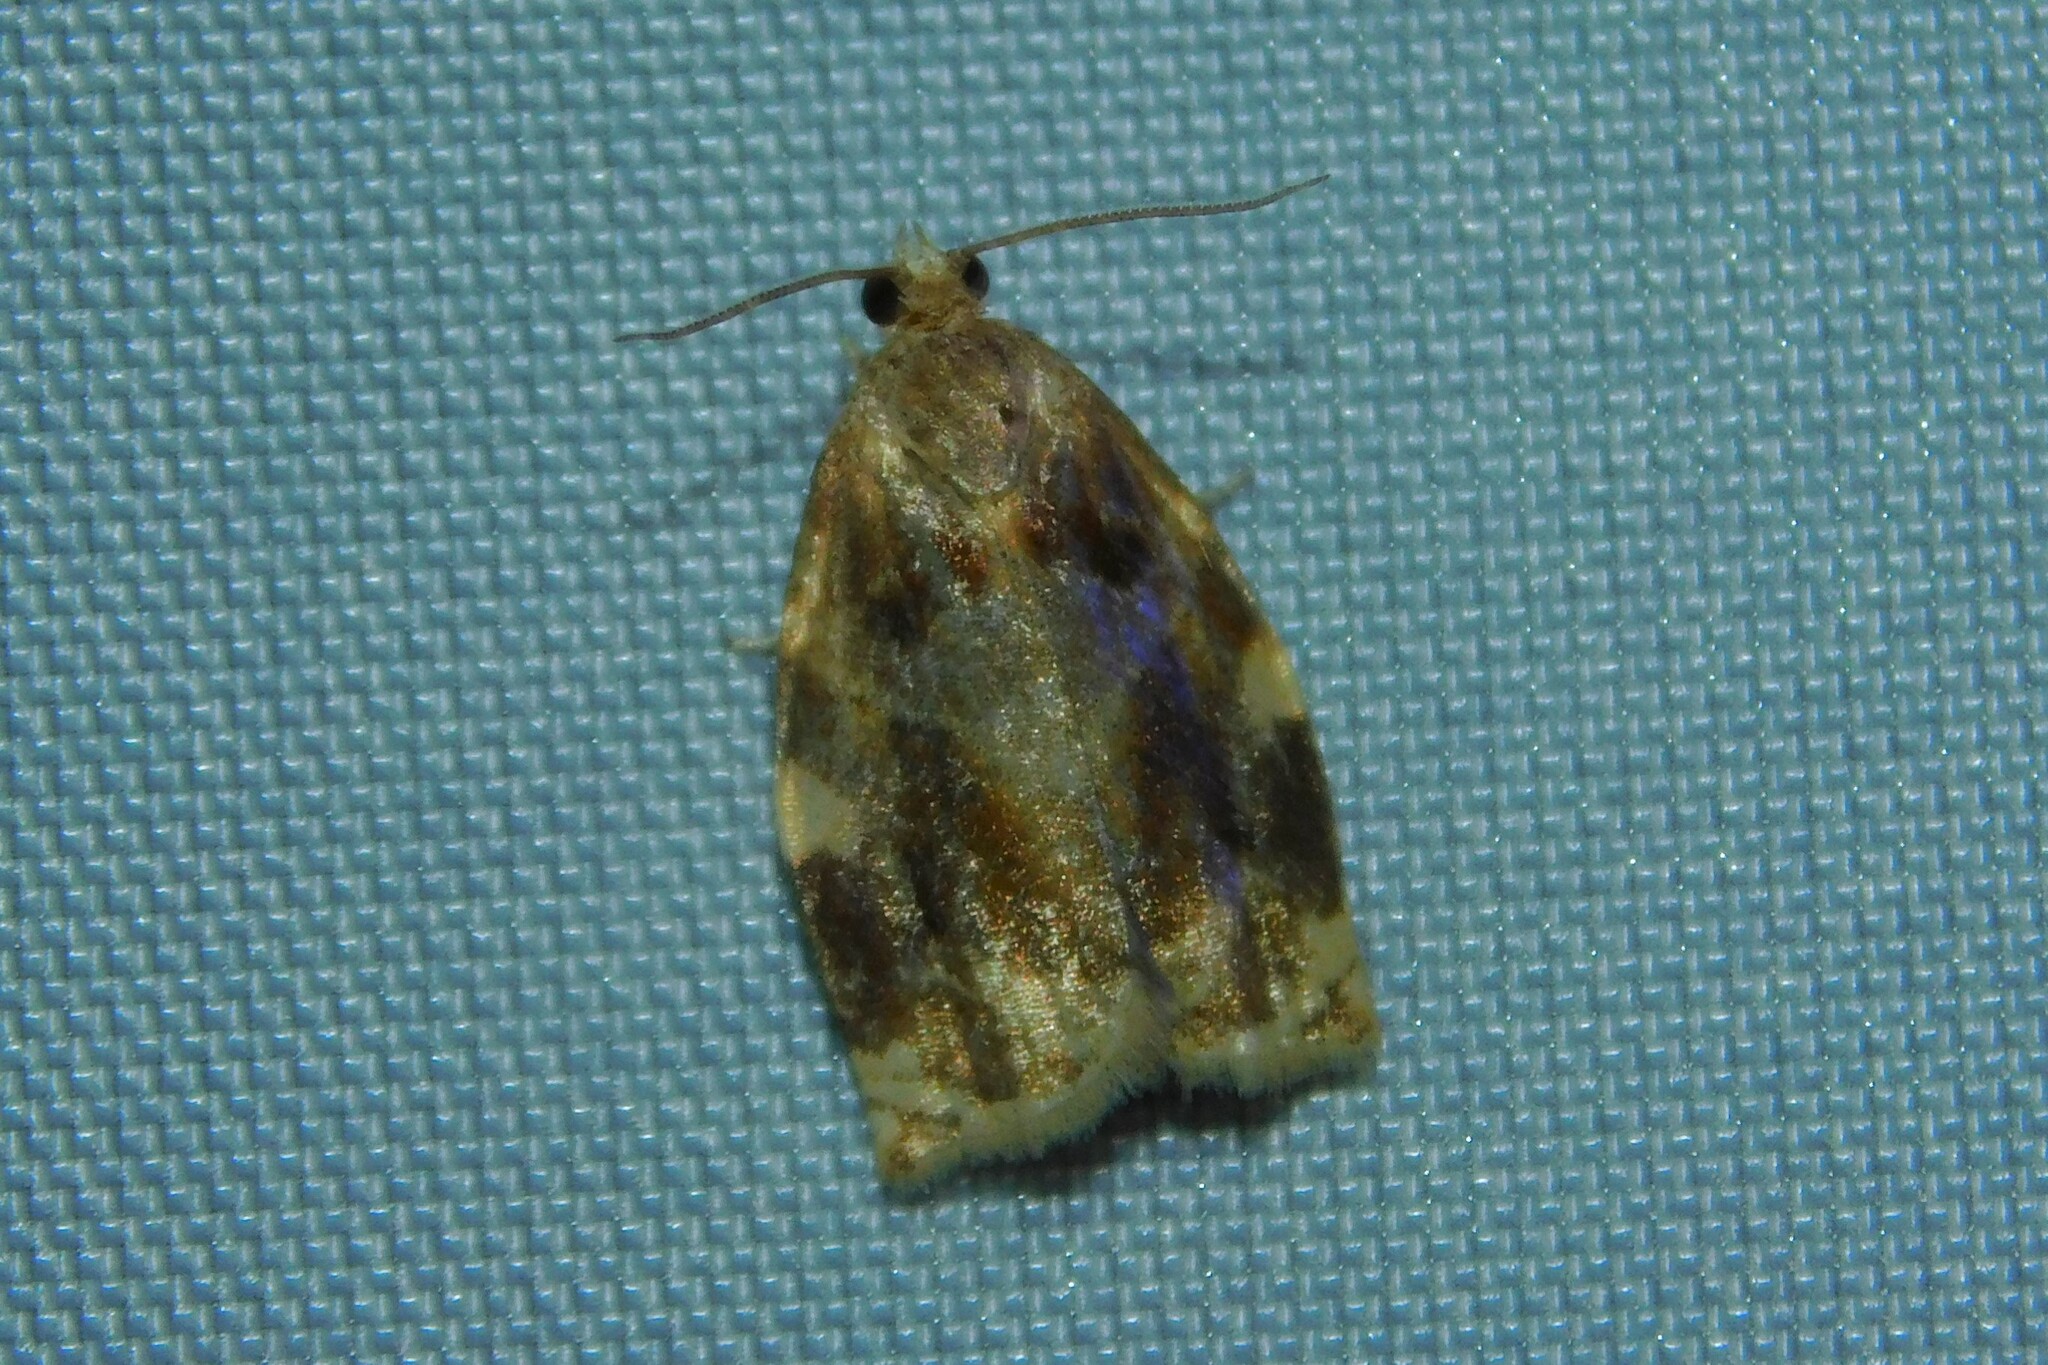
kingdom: Animalia
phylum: Arthropoda
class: Insecta
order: Lepidoptera
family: Tortricidae
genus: Archips
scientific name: Archips xylosteana
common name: Variegated golden tortrix
